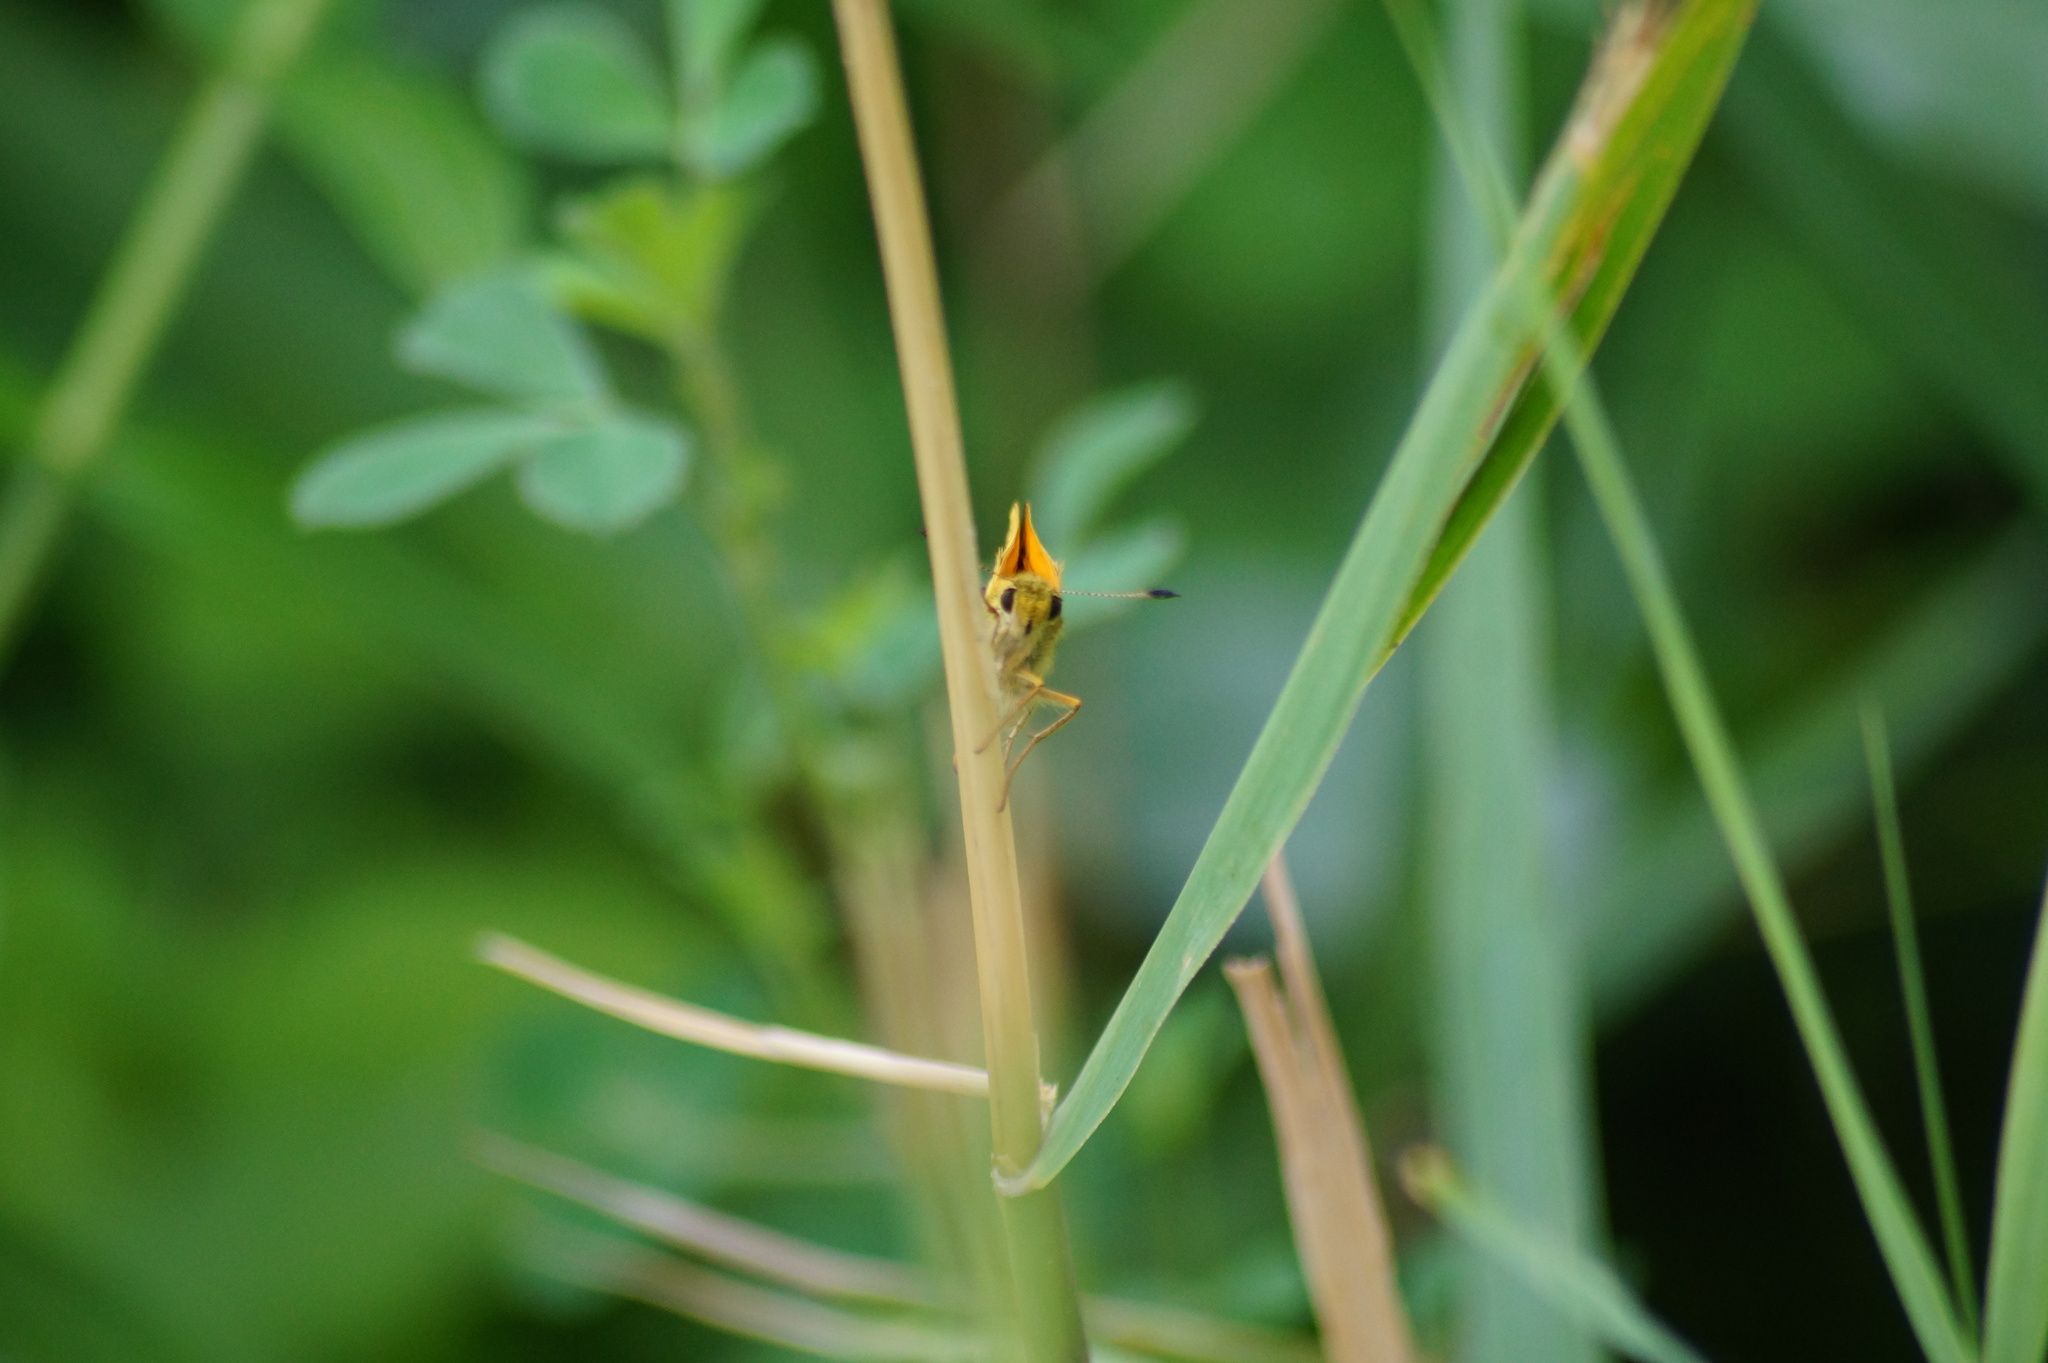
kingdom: Animalia
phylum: Arthropoda
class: Insecta
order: Lepidoptera
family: Hesperiidae
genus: Ochlodes
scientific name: Ochlodes venata
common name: Large skipper
